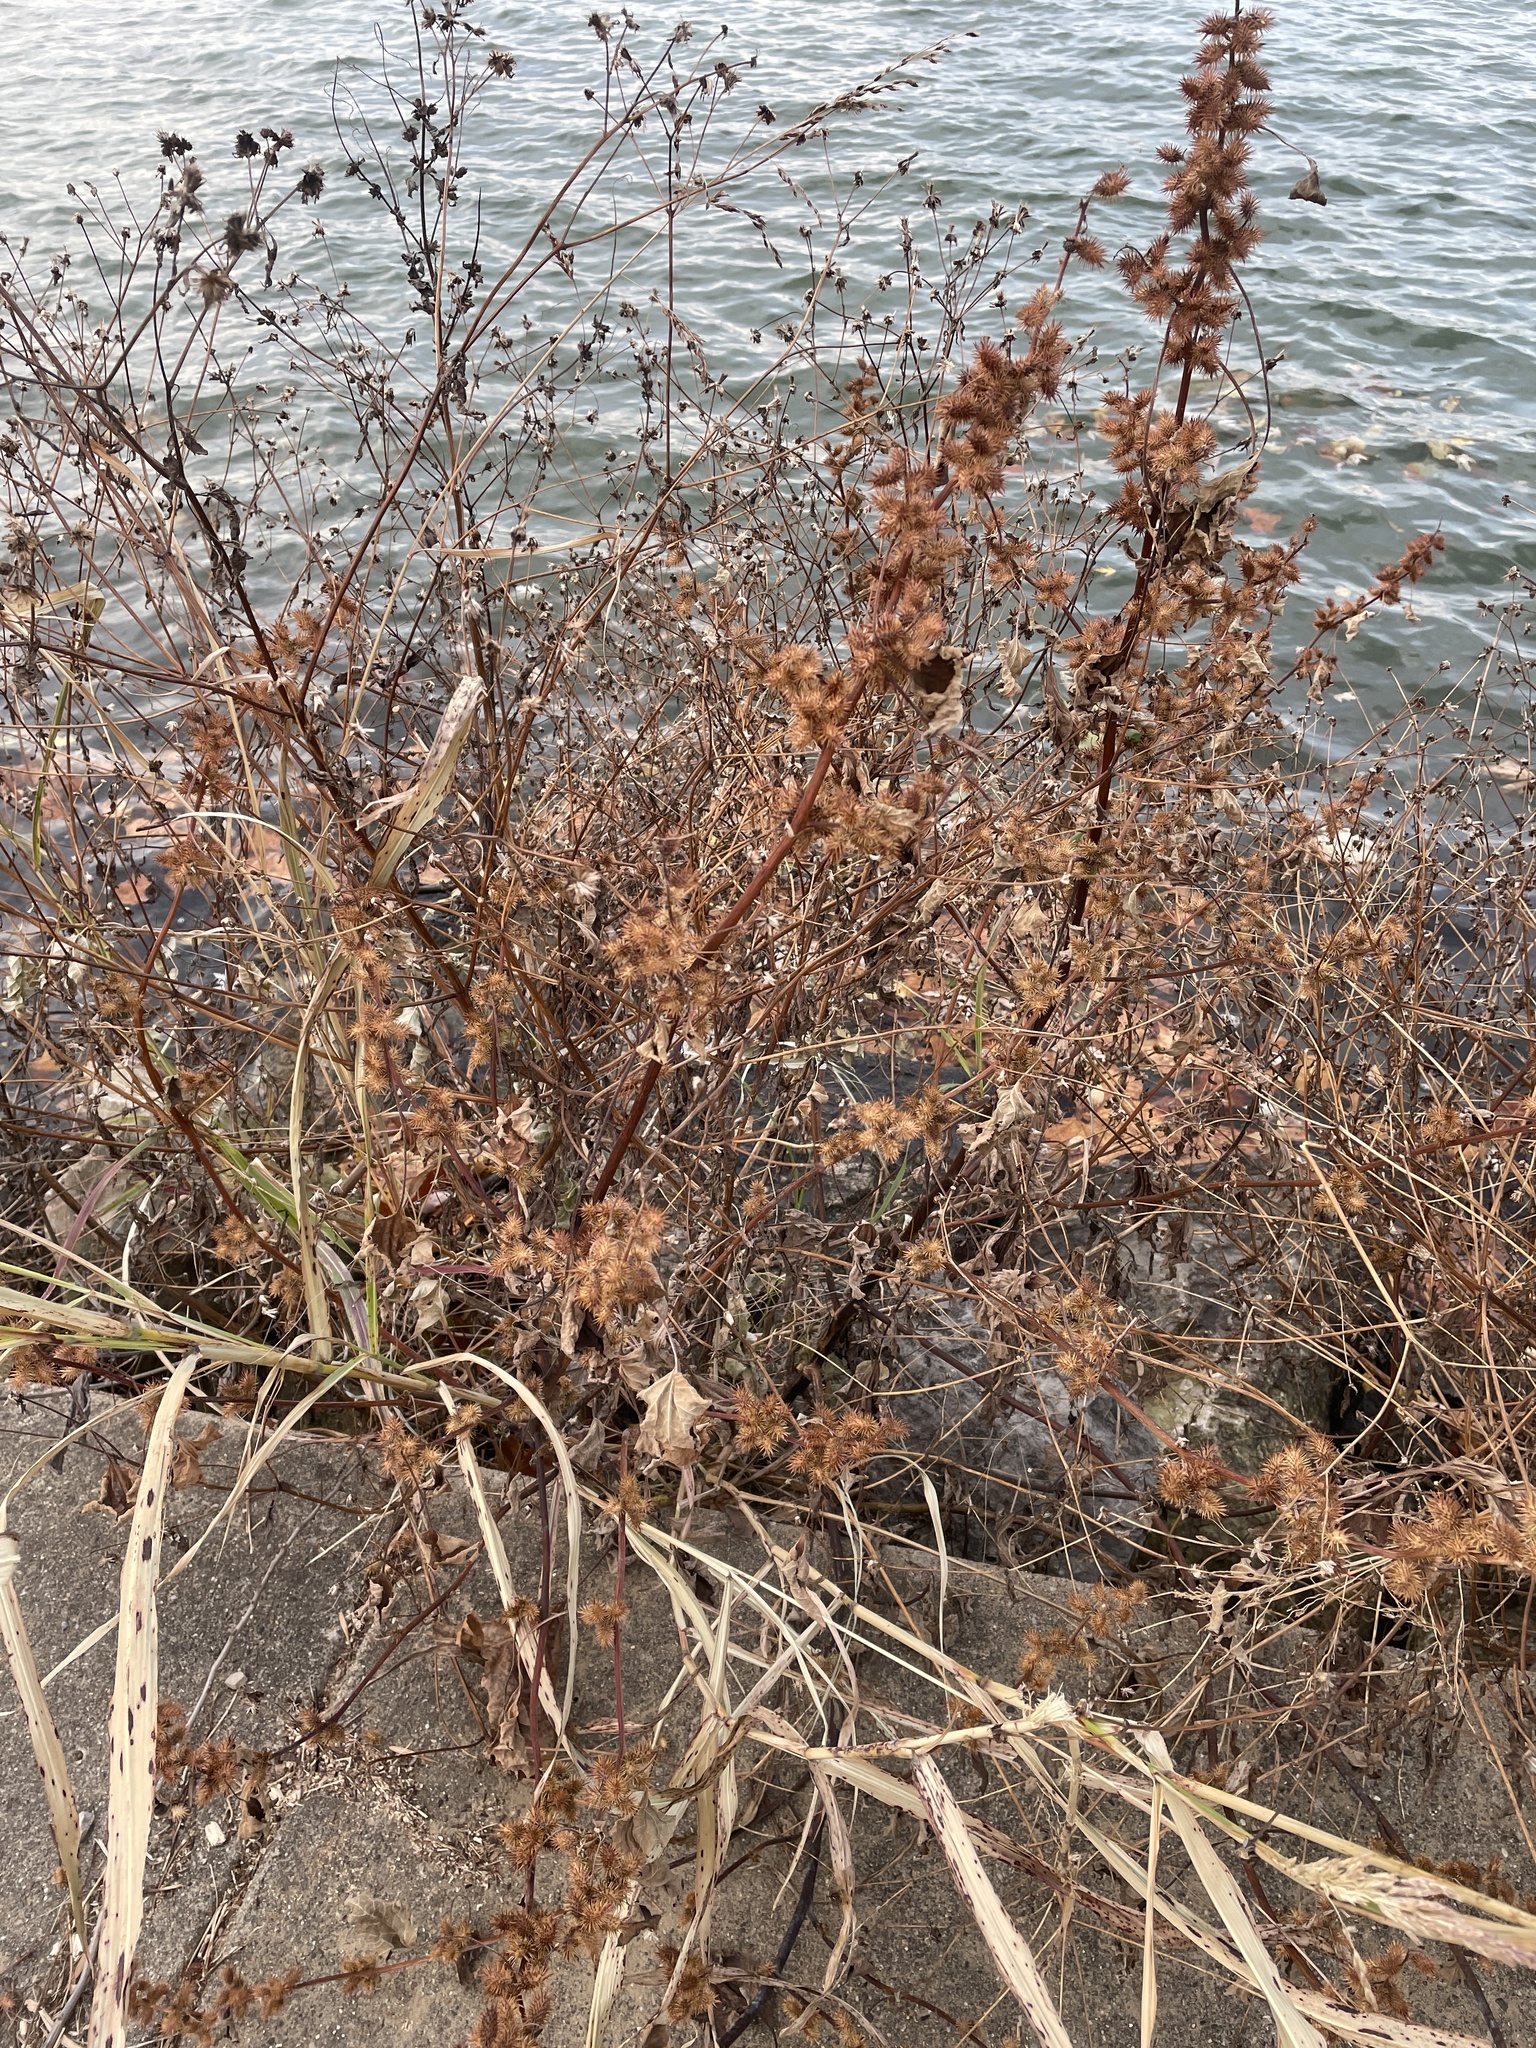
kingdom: Plantae
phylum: Tracheophyta
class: Magnoliopsida
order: Asterales
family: Asteraceae
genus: Xanthium
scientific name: Xanthium strumarium
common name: Rough cocklebur
